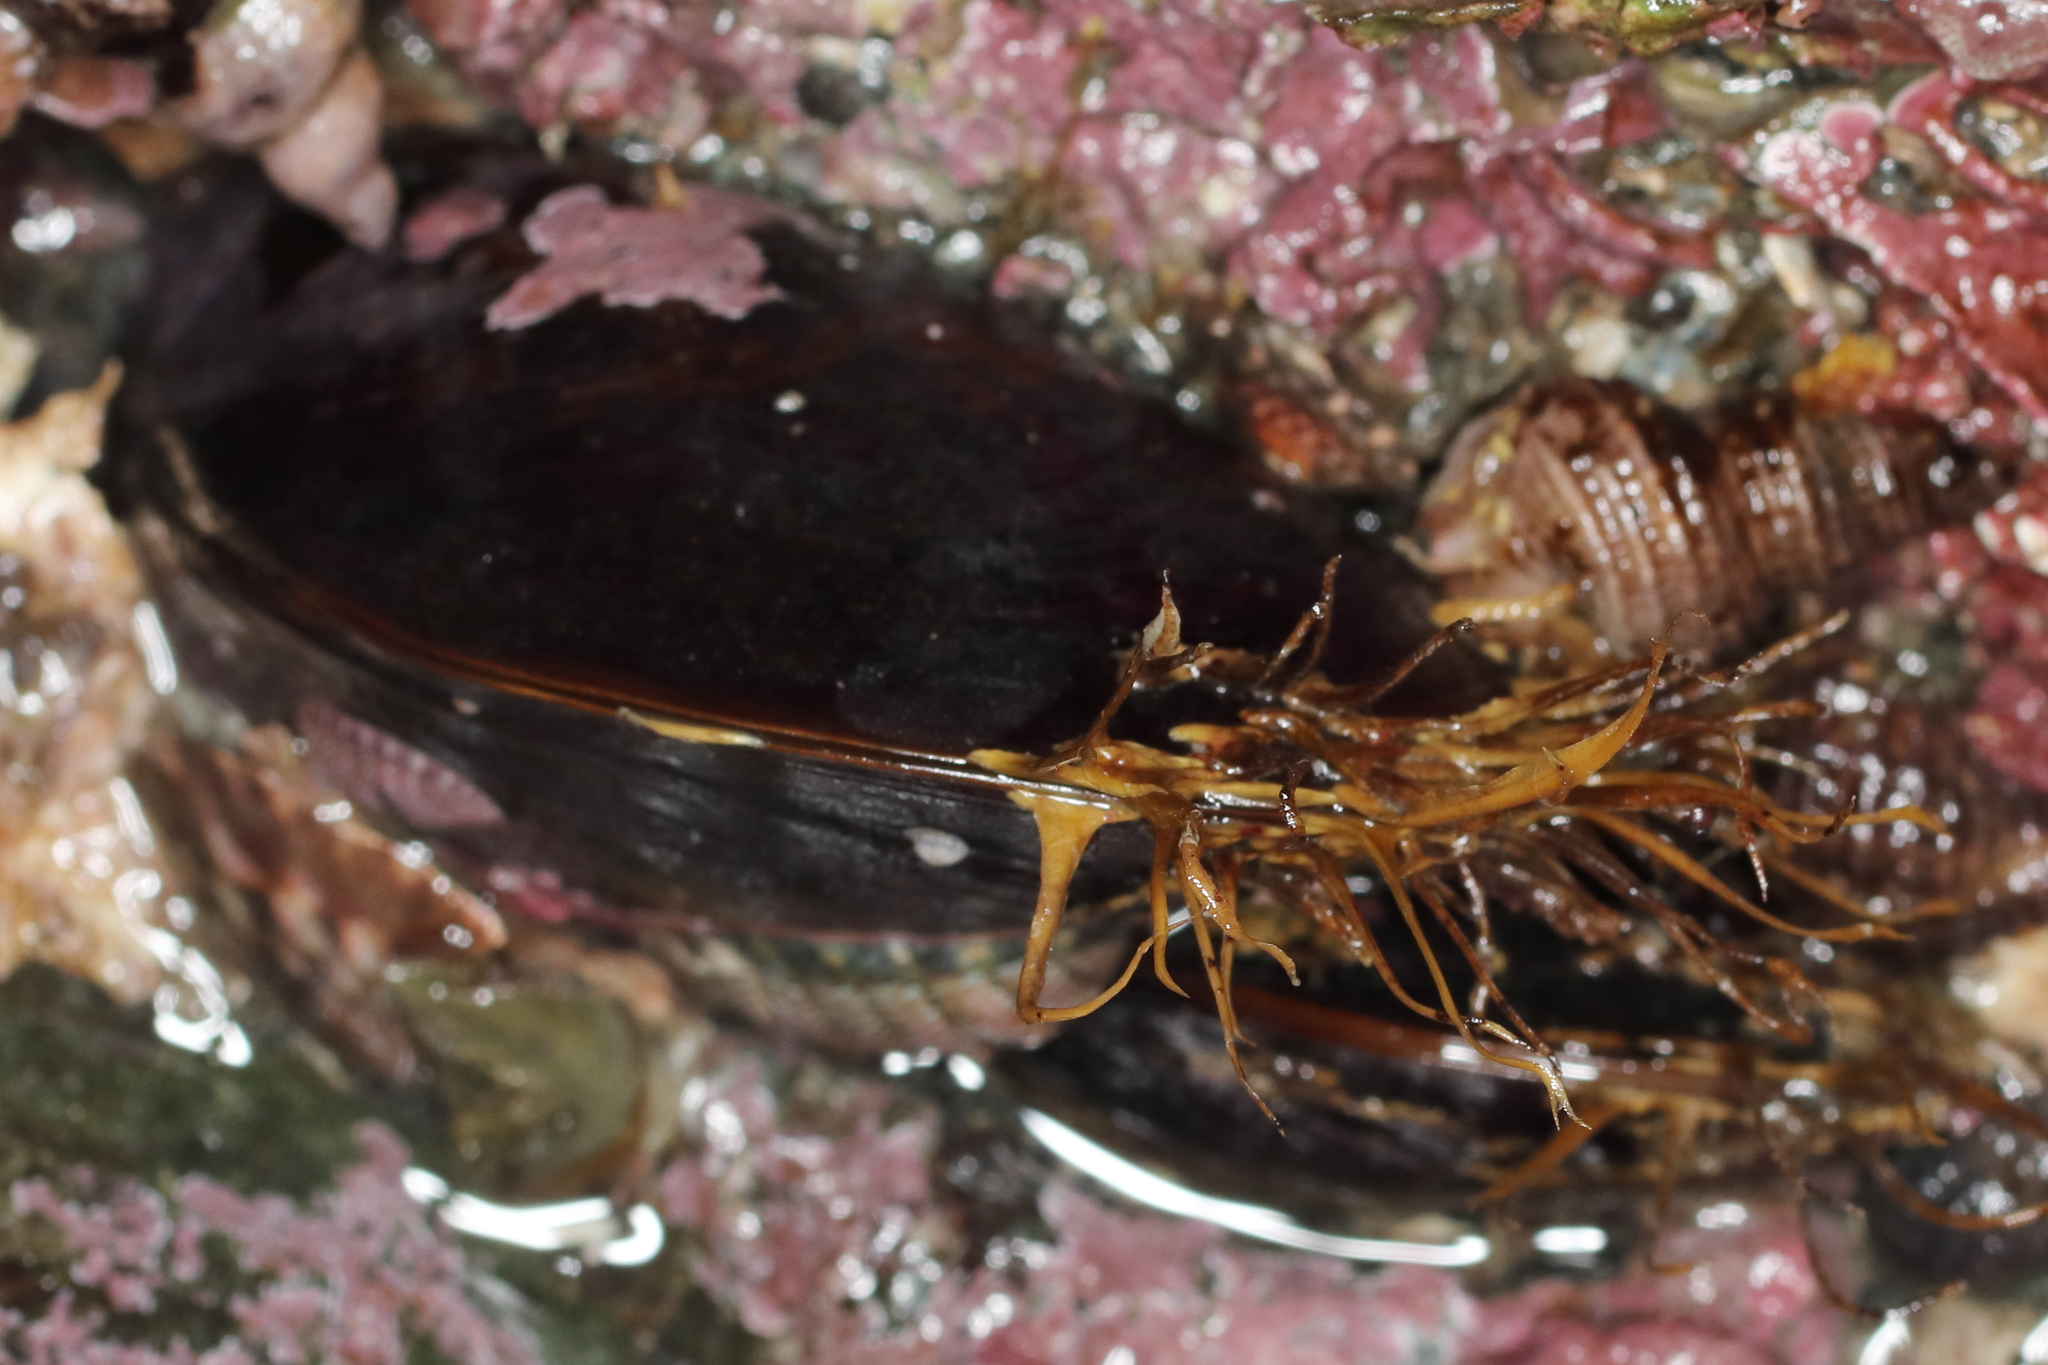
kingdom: Animalia
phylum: Mollusca
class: Bivalvia
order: Mytilida
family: Mytilidae
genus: Modiolus
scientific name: Modiolus modiolus
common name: Horse-mussel
